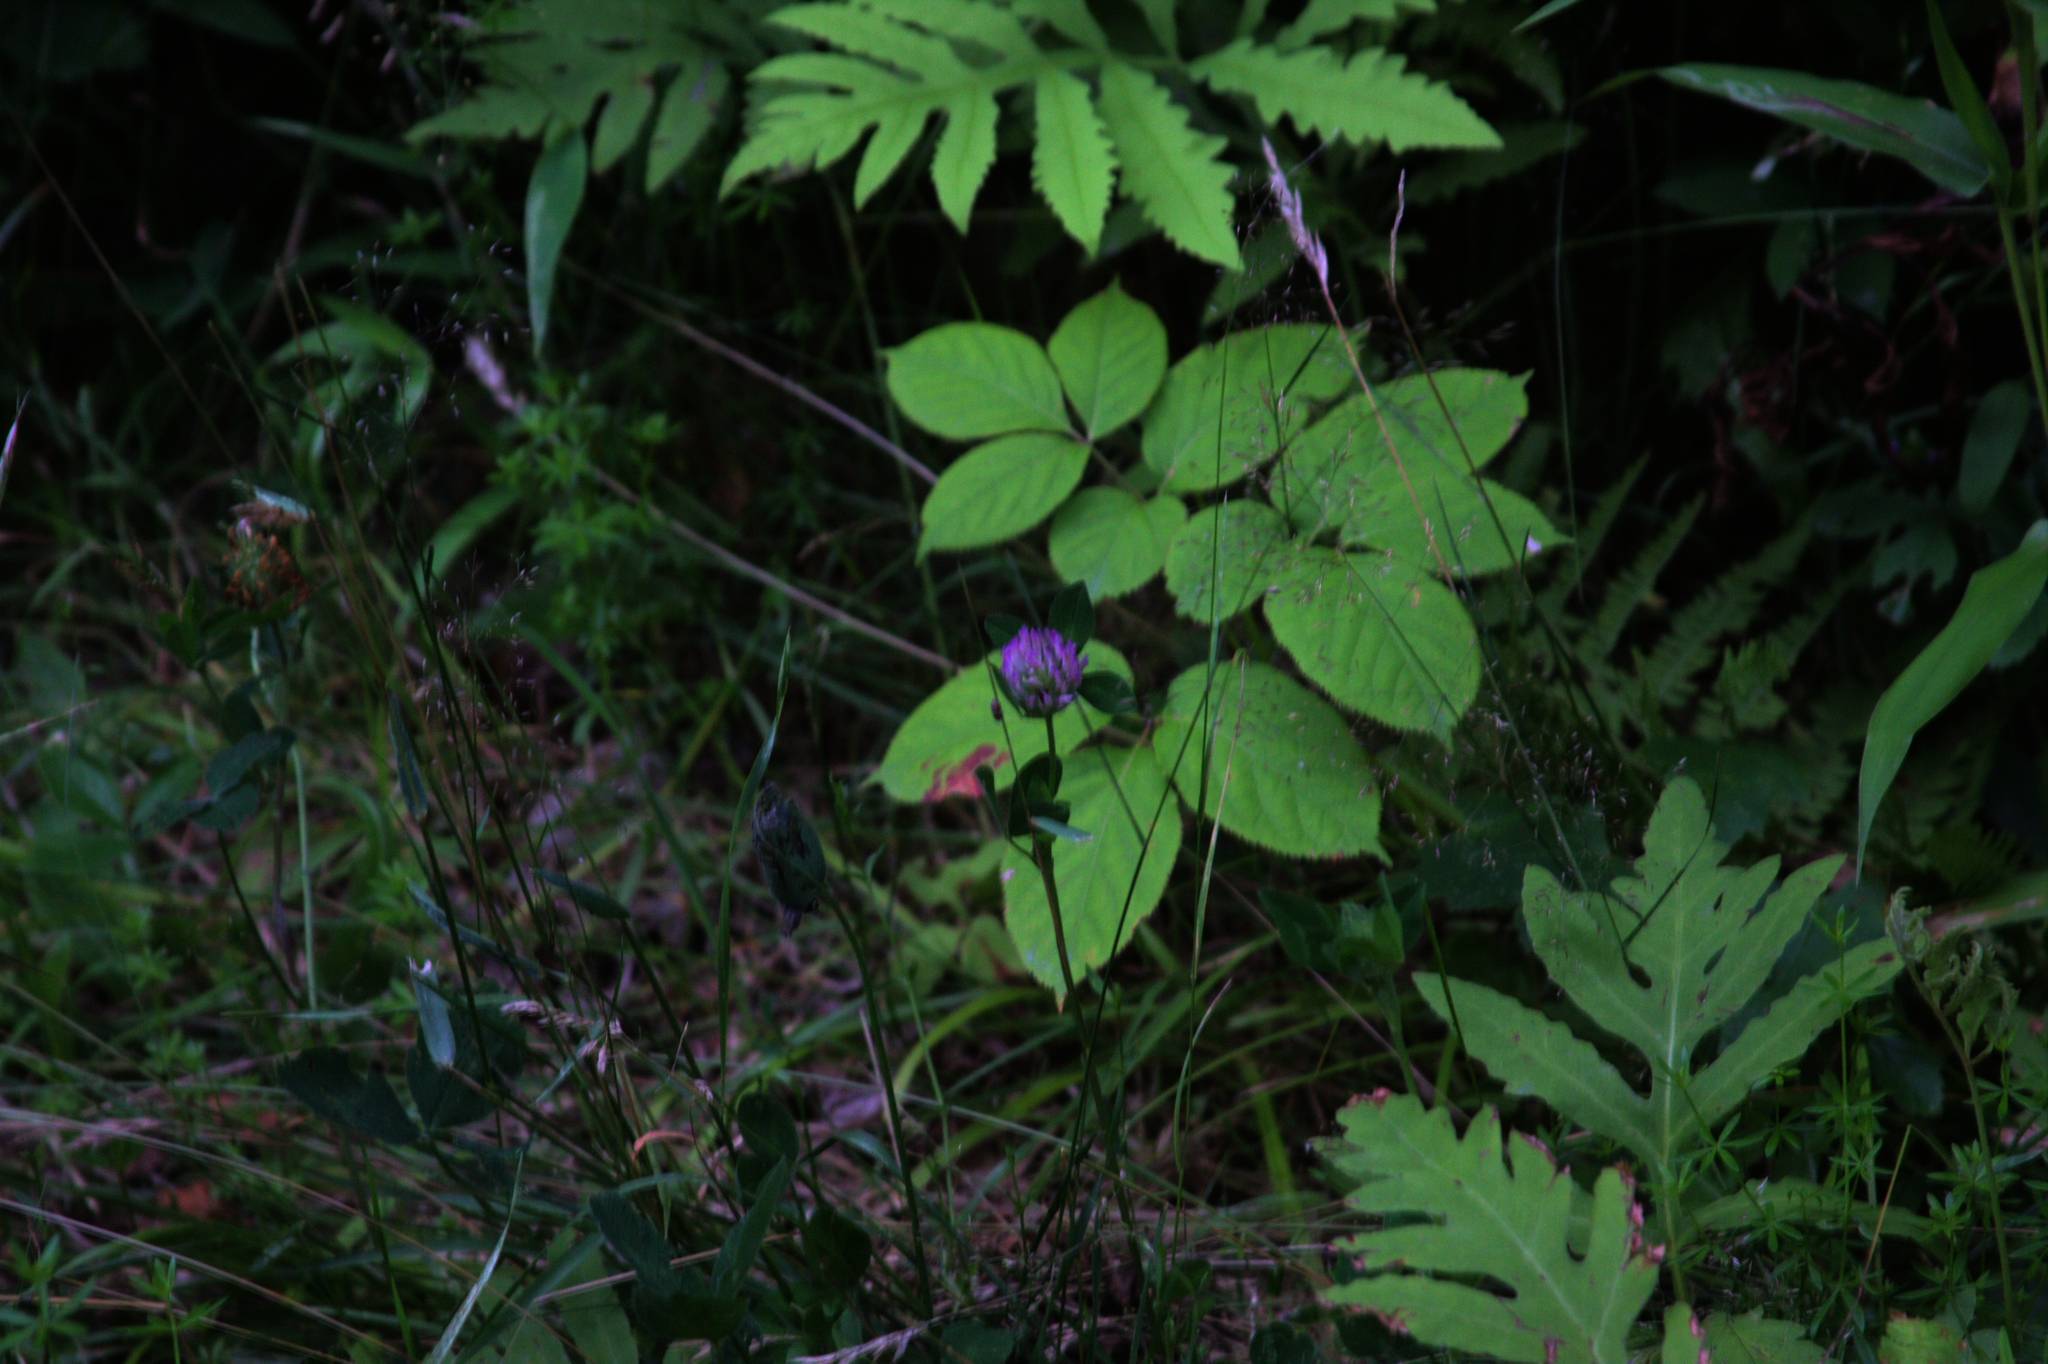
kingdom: Plantae
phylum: Tracheophyta
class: Magnoliopsida
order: Fabales
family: Fabaceae
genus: Trifolium
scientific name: Trifolium pratense
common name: Red clover
